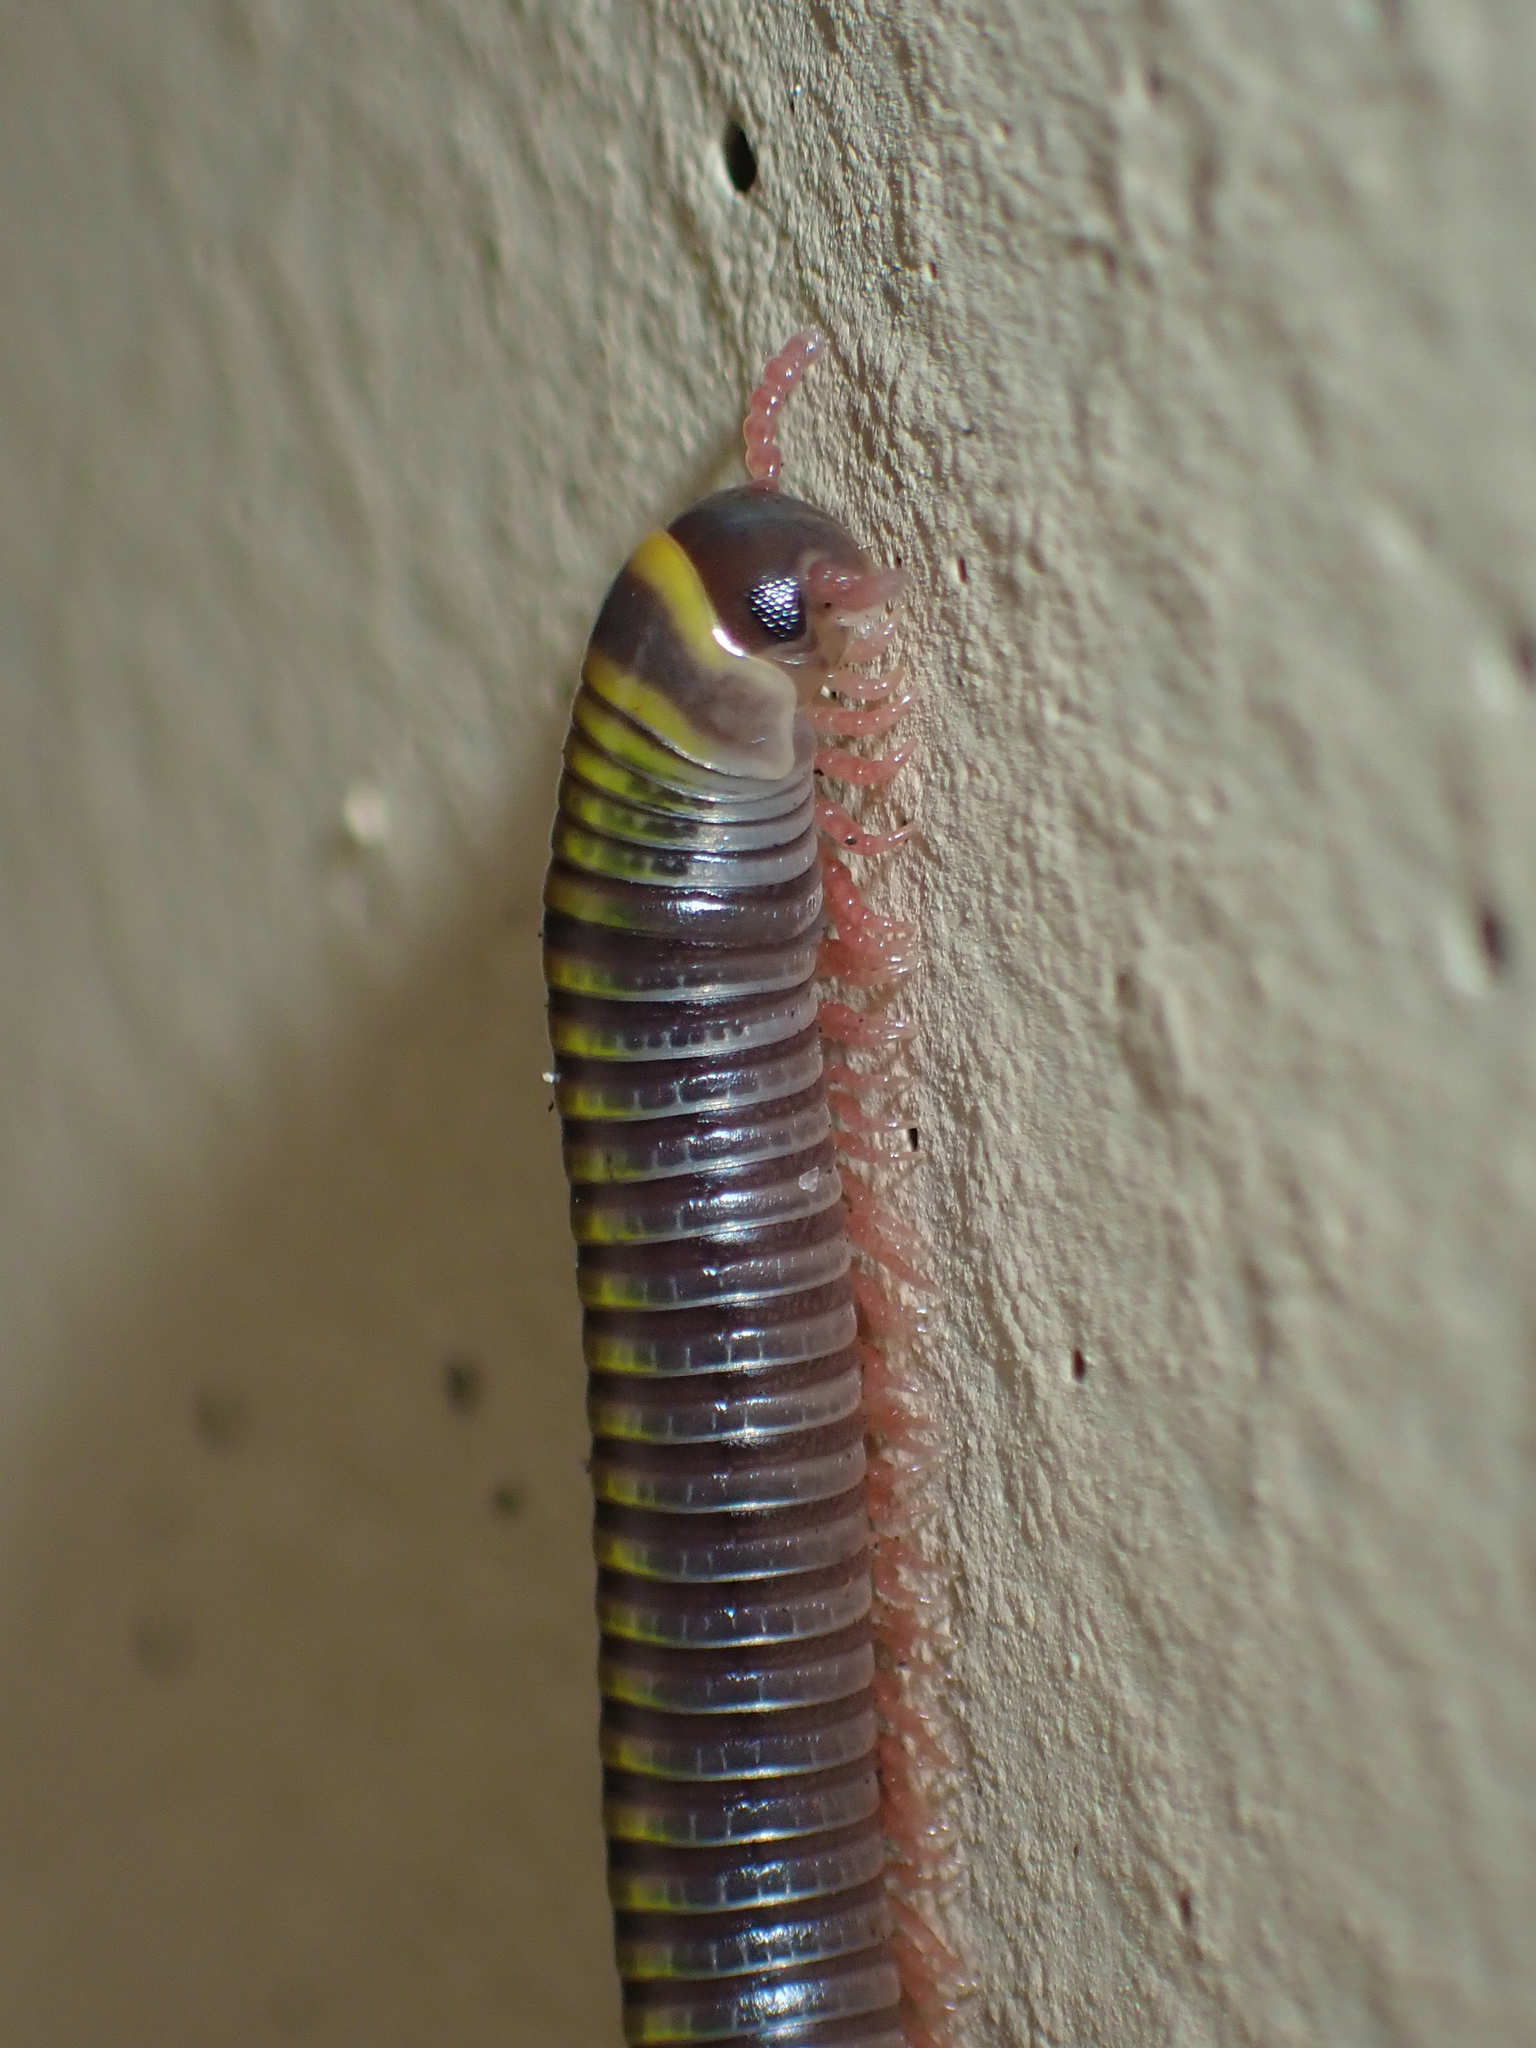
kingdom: Animalia
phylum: Arthropoda
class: Diplopoda
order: Spirobolida
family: Rhinocricidae
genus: Anadenobolus
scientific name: Anadenobolus monilicornis
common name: Caribbean millipede
